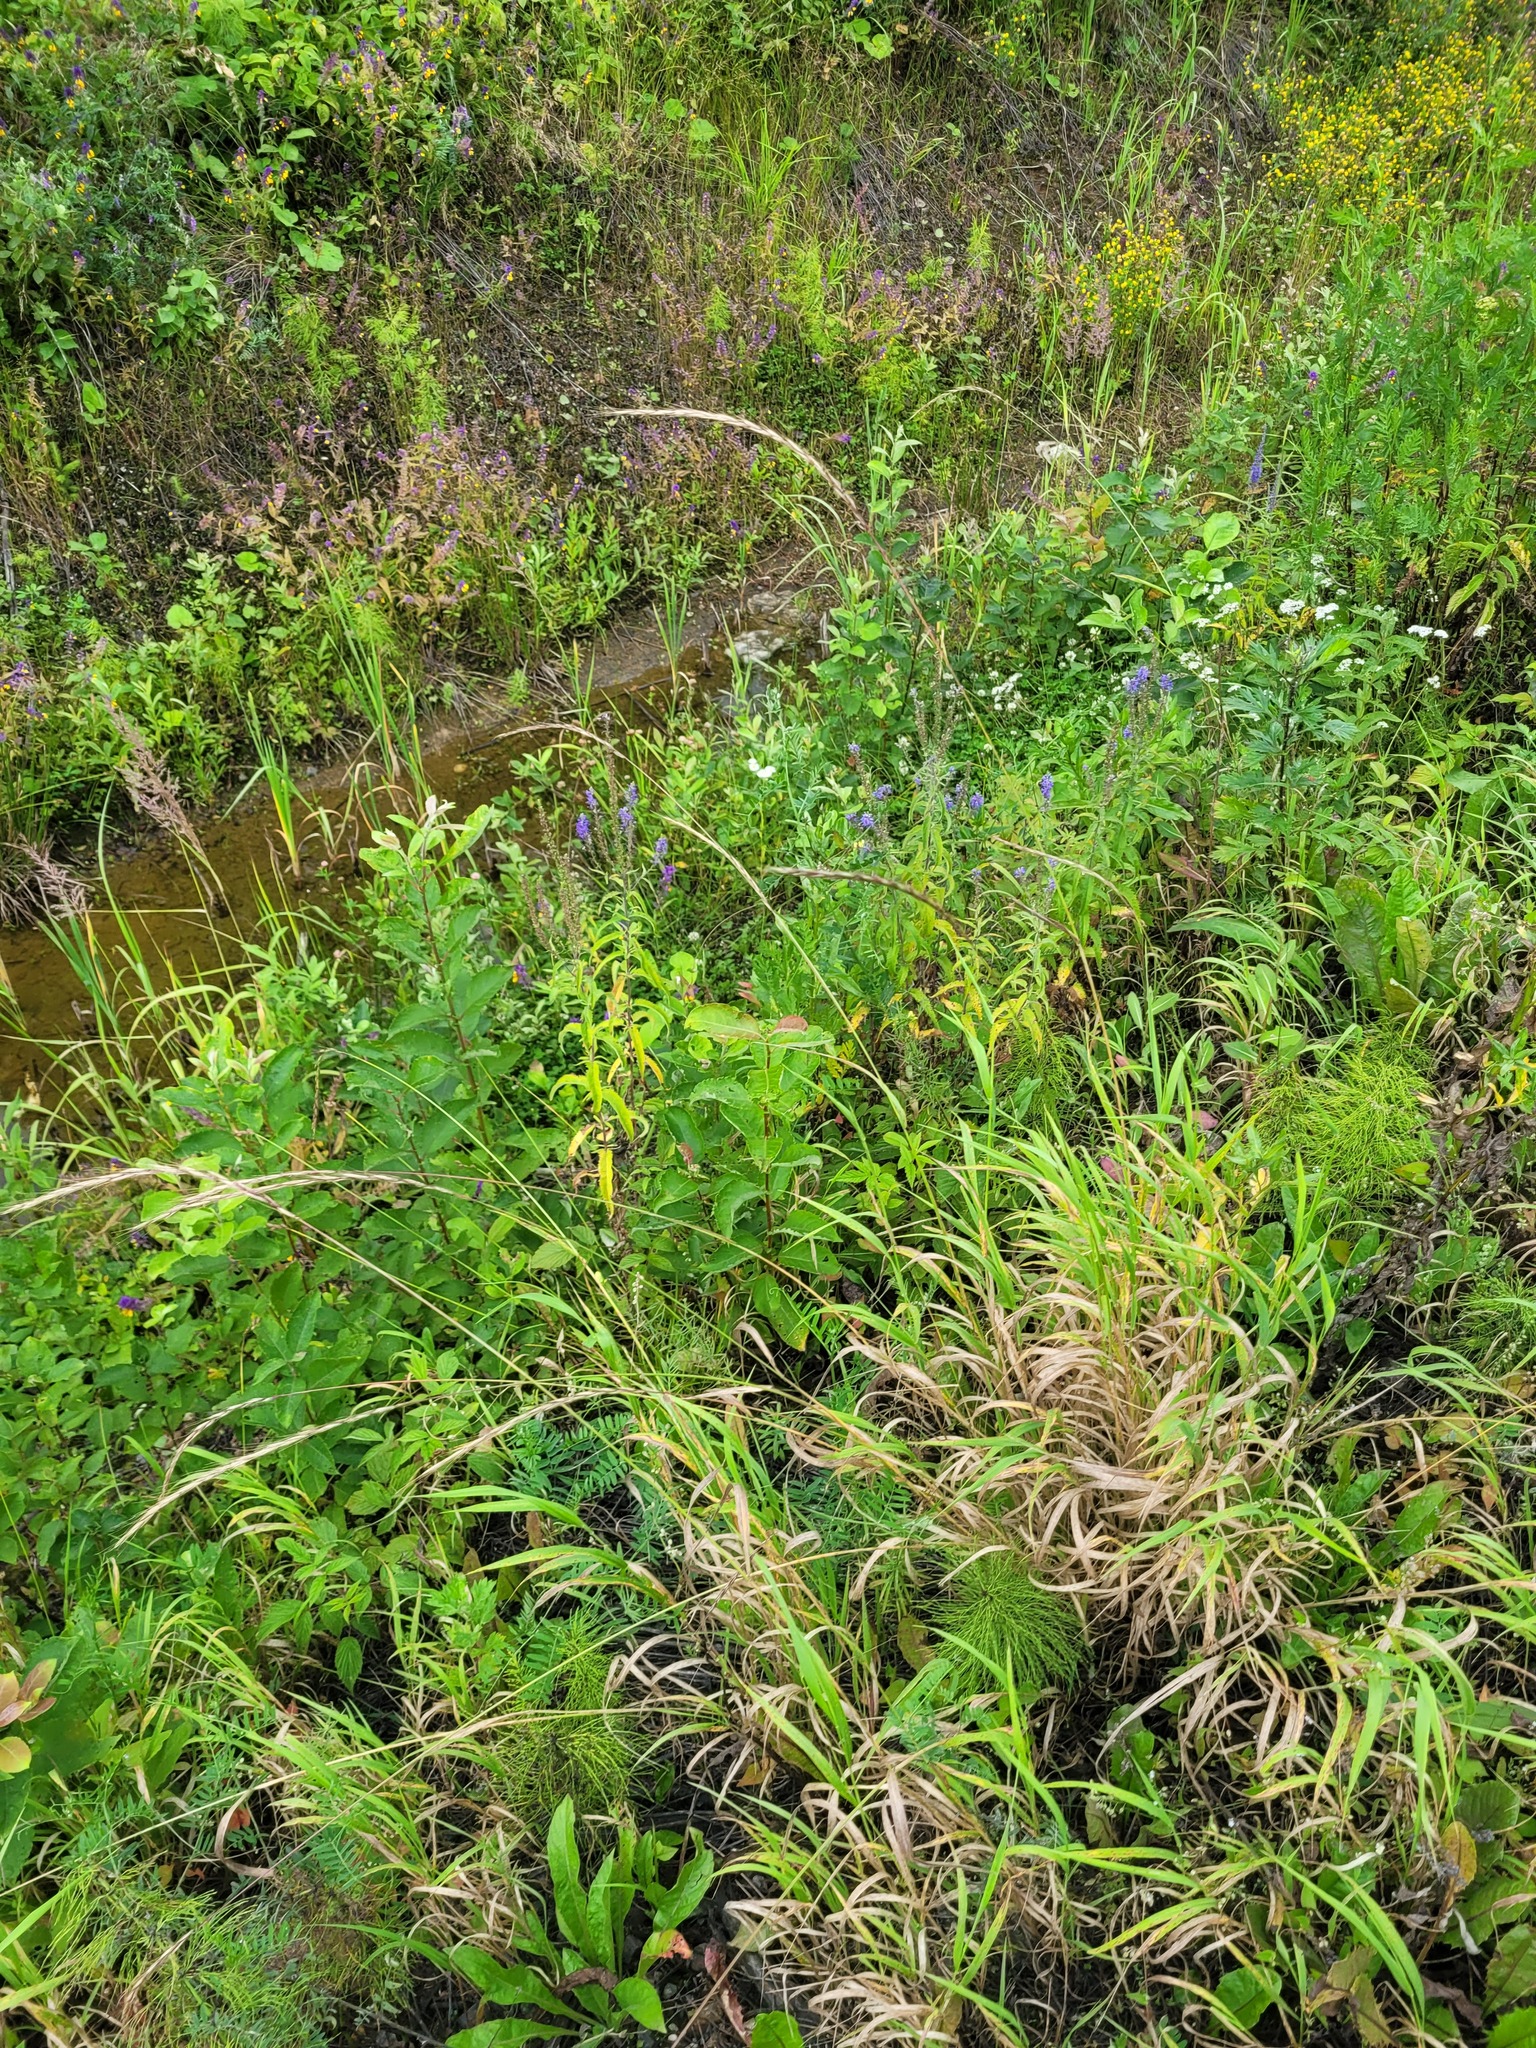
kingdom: Plantae
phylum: Tracheophyta
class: Liliopsida
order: Poales
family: Poaceae
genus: Elymus
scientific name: Elymus caninus
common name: Bearded couch
